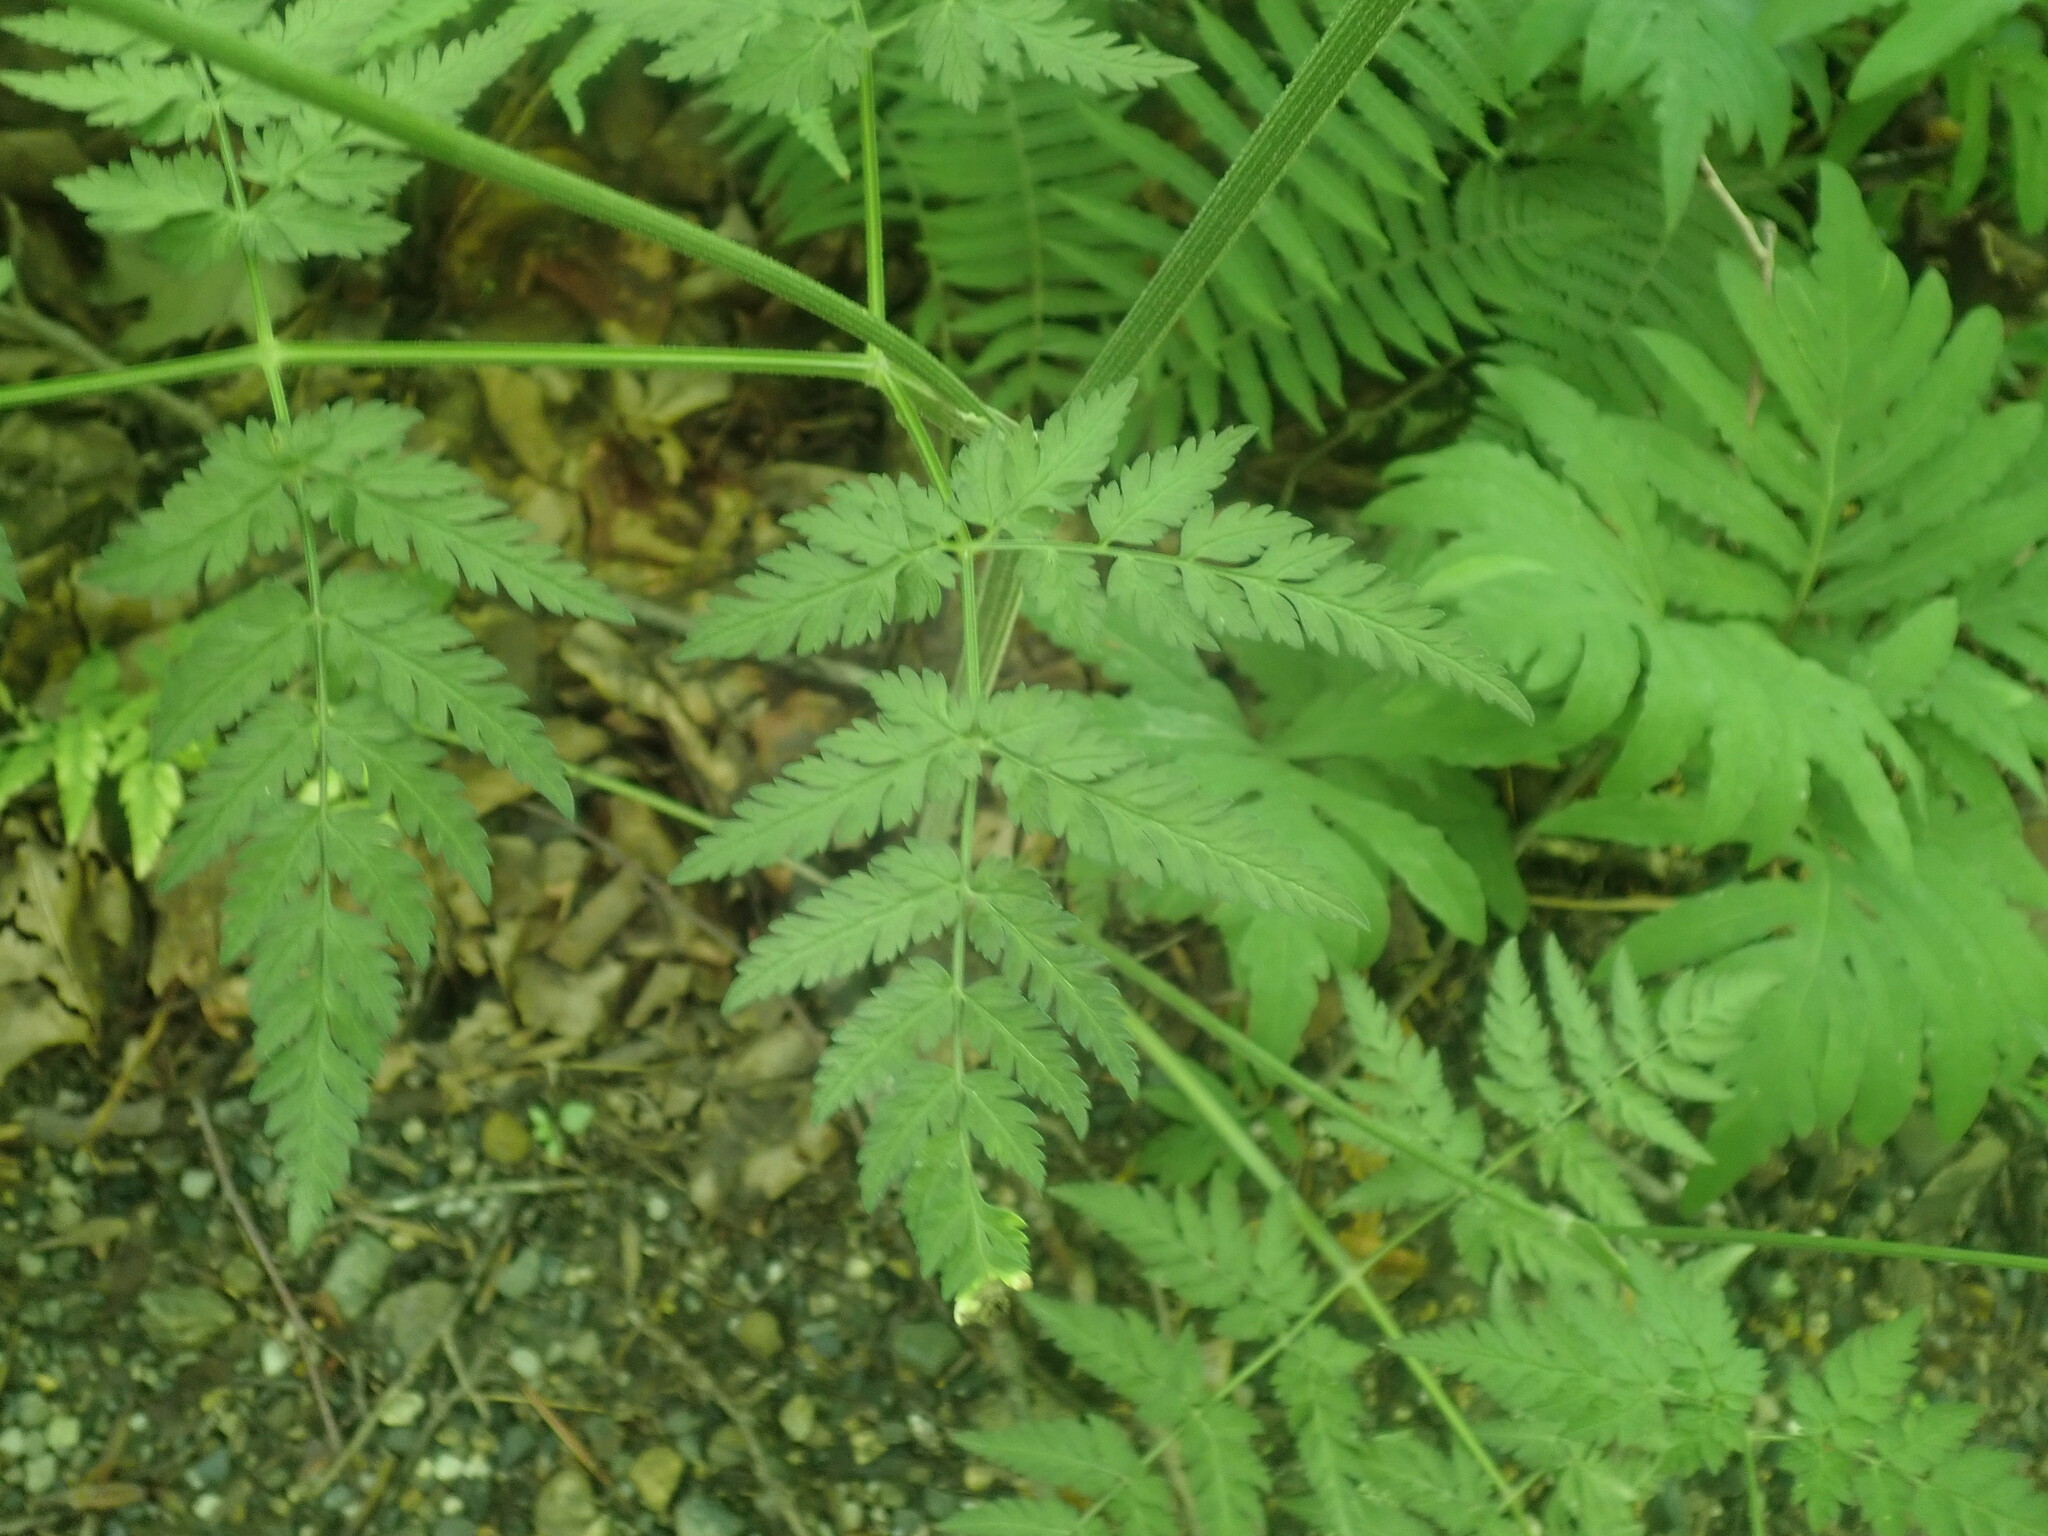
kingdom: Plantae
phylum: Tracheophyta
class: Magnoliopsida
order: Apiales
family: Apiaceae
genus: Anthriscus
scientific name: Anthriscus sylvestris
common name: Cow parsley
